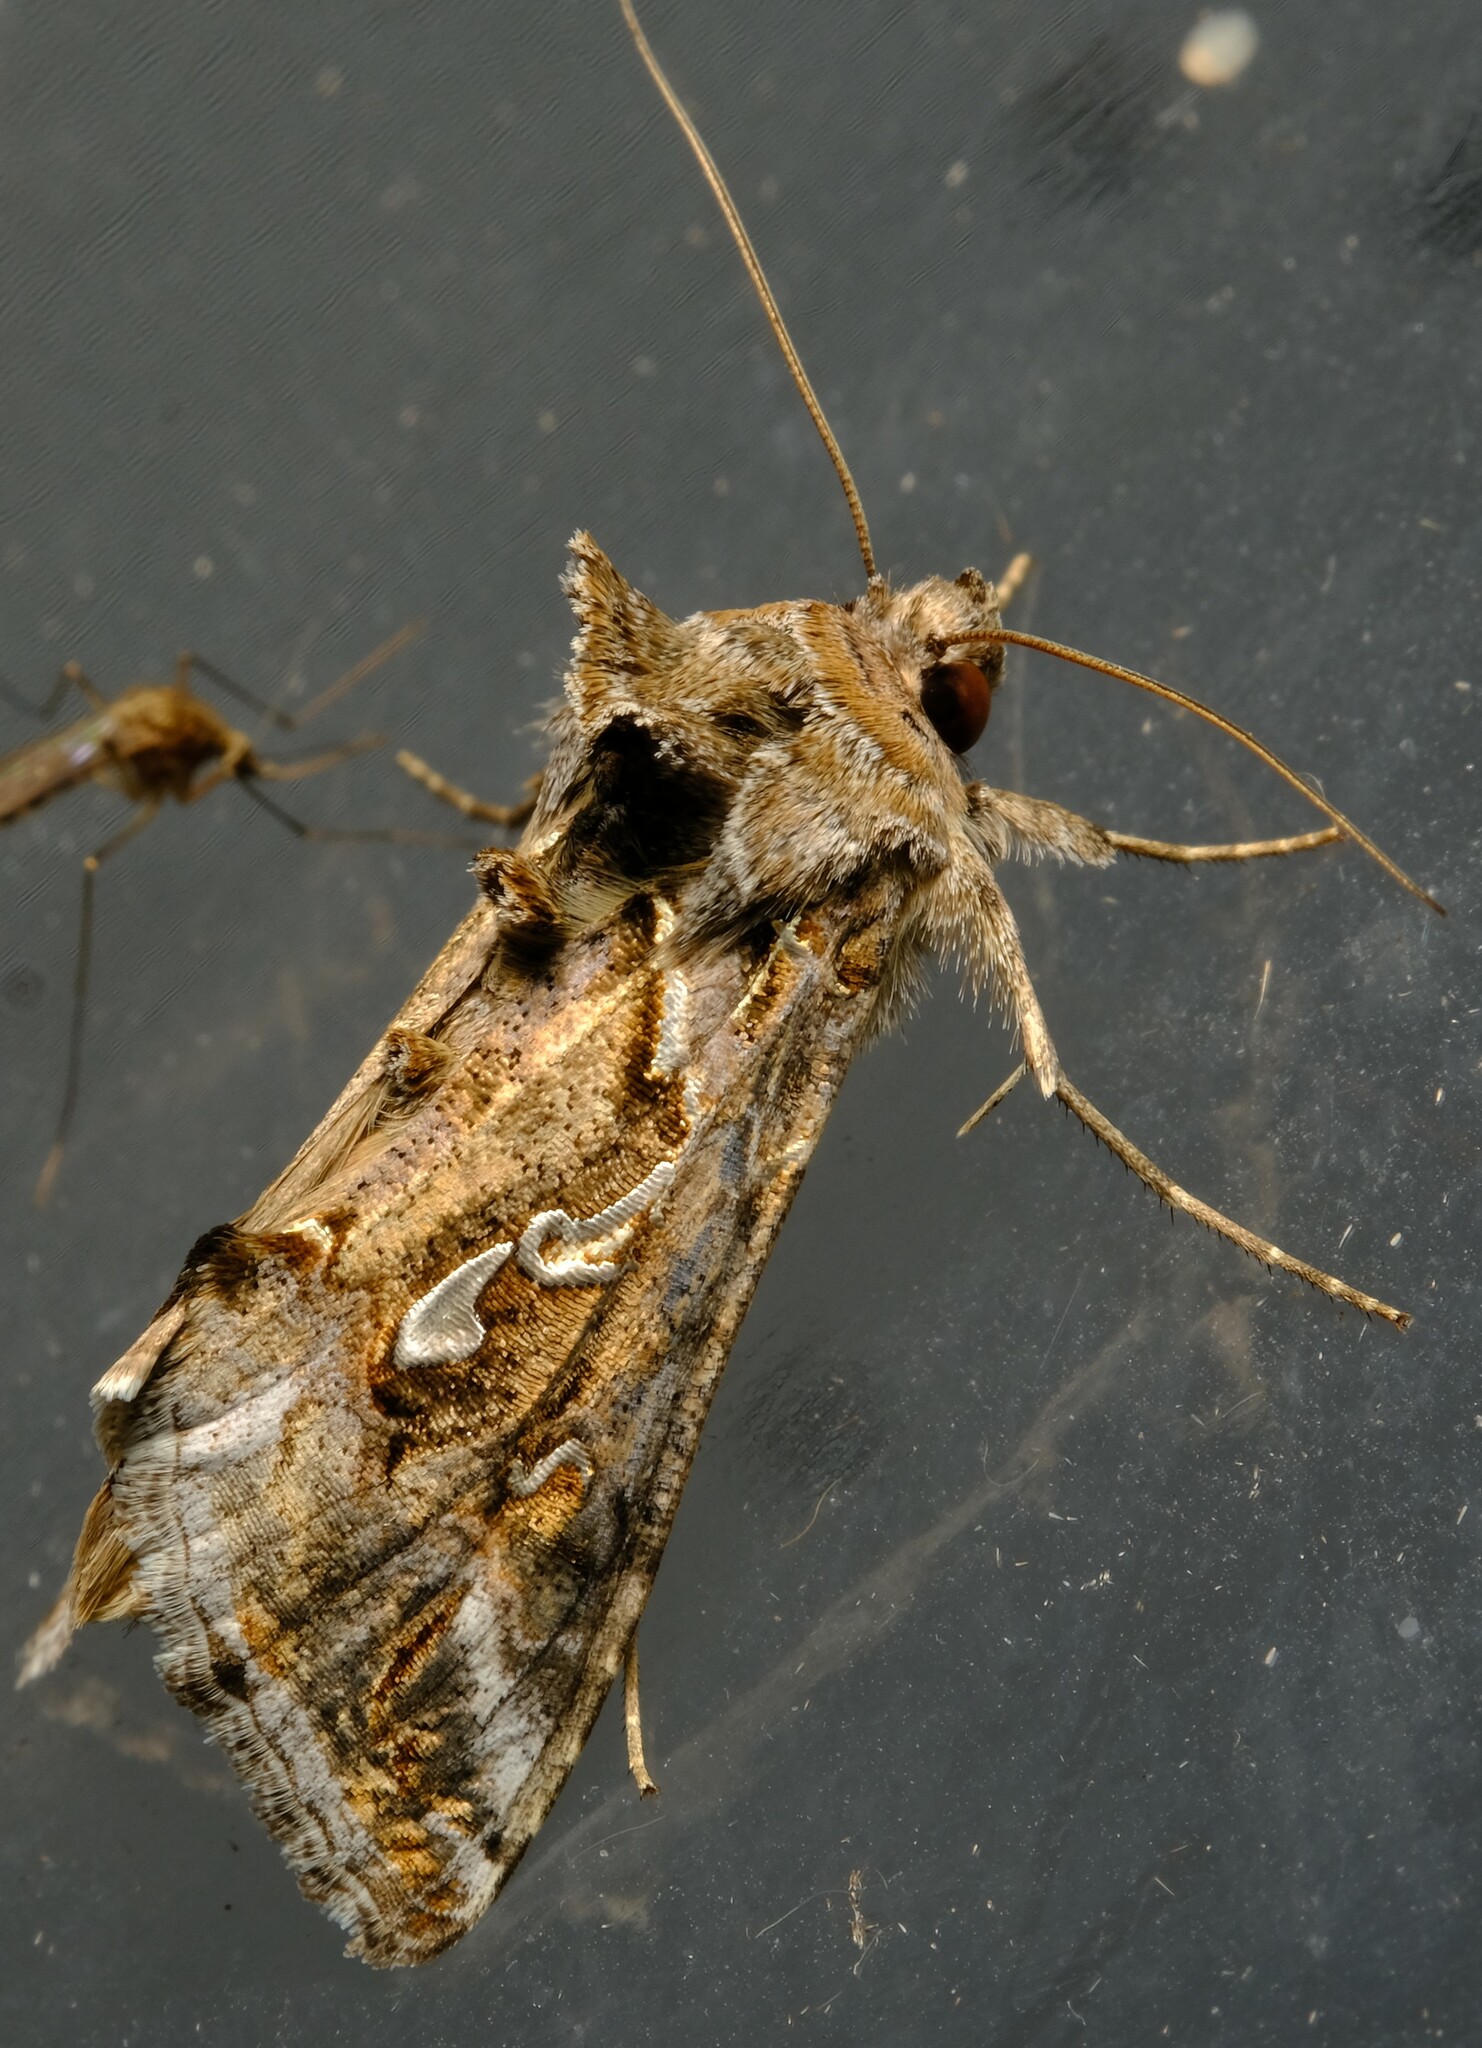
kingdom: Animalia
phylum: Arthropoda
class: Insecta
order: Lepidoptera
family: Noctuidae
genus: Chrysodeixis
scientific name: Chrysodeixis argentifera
